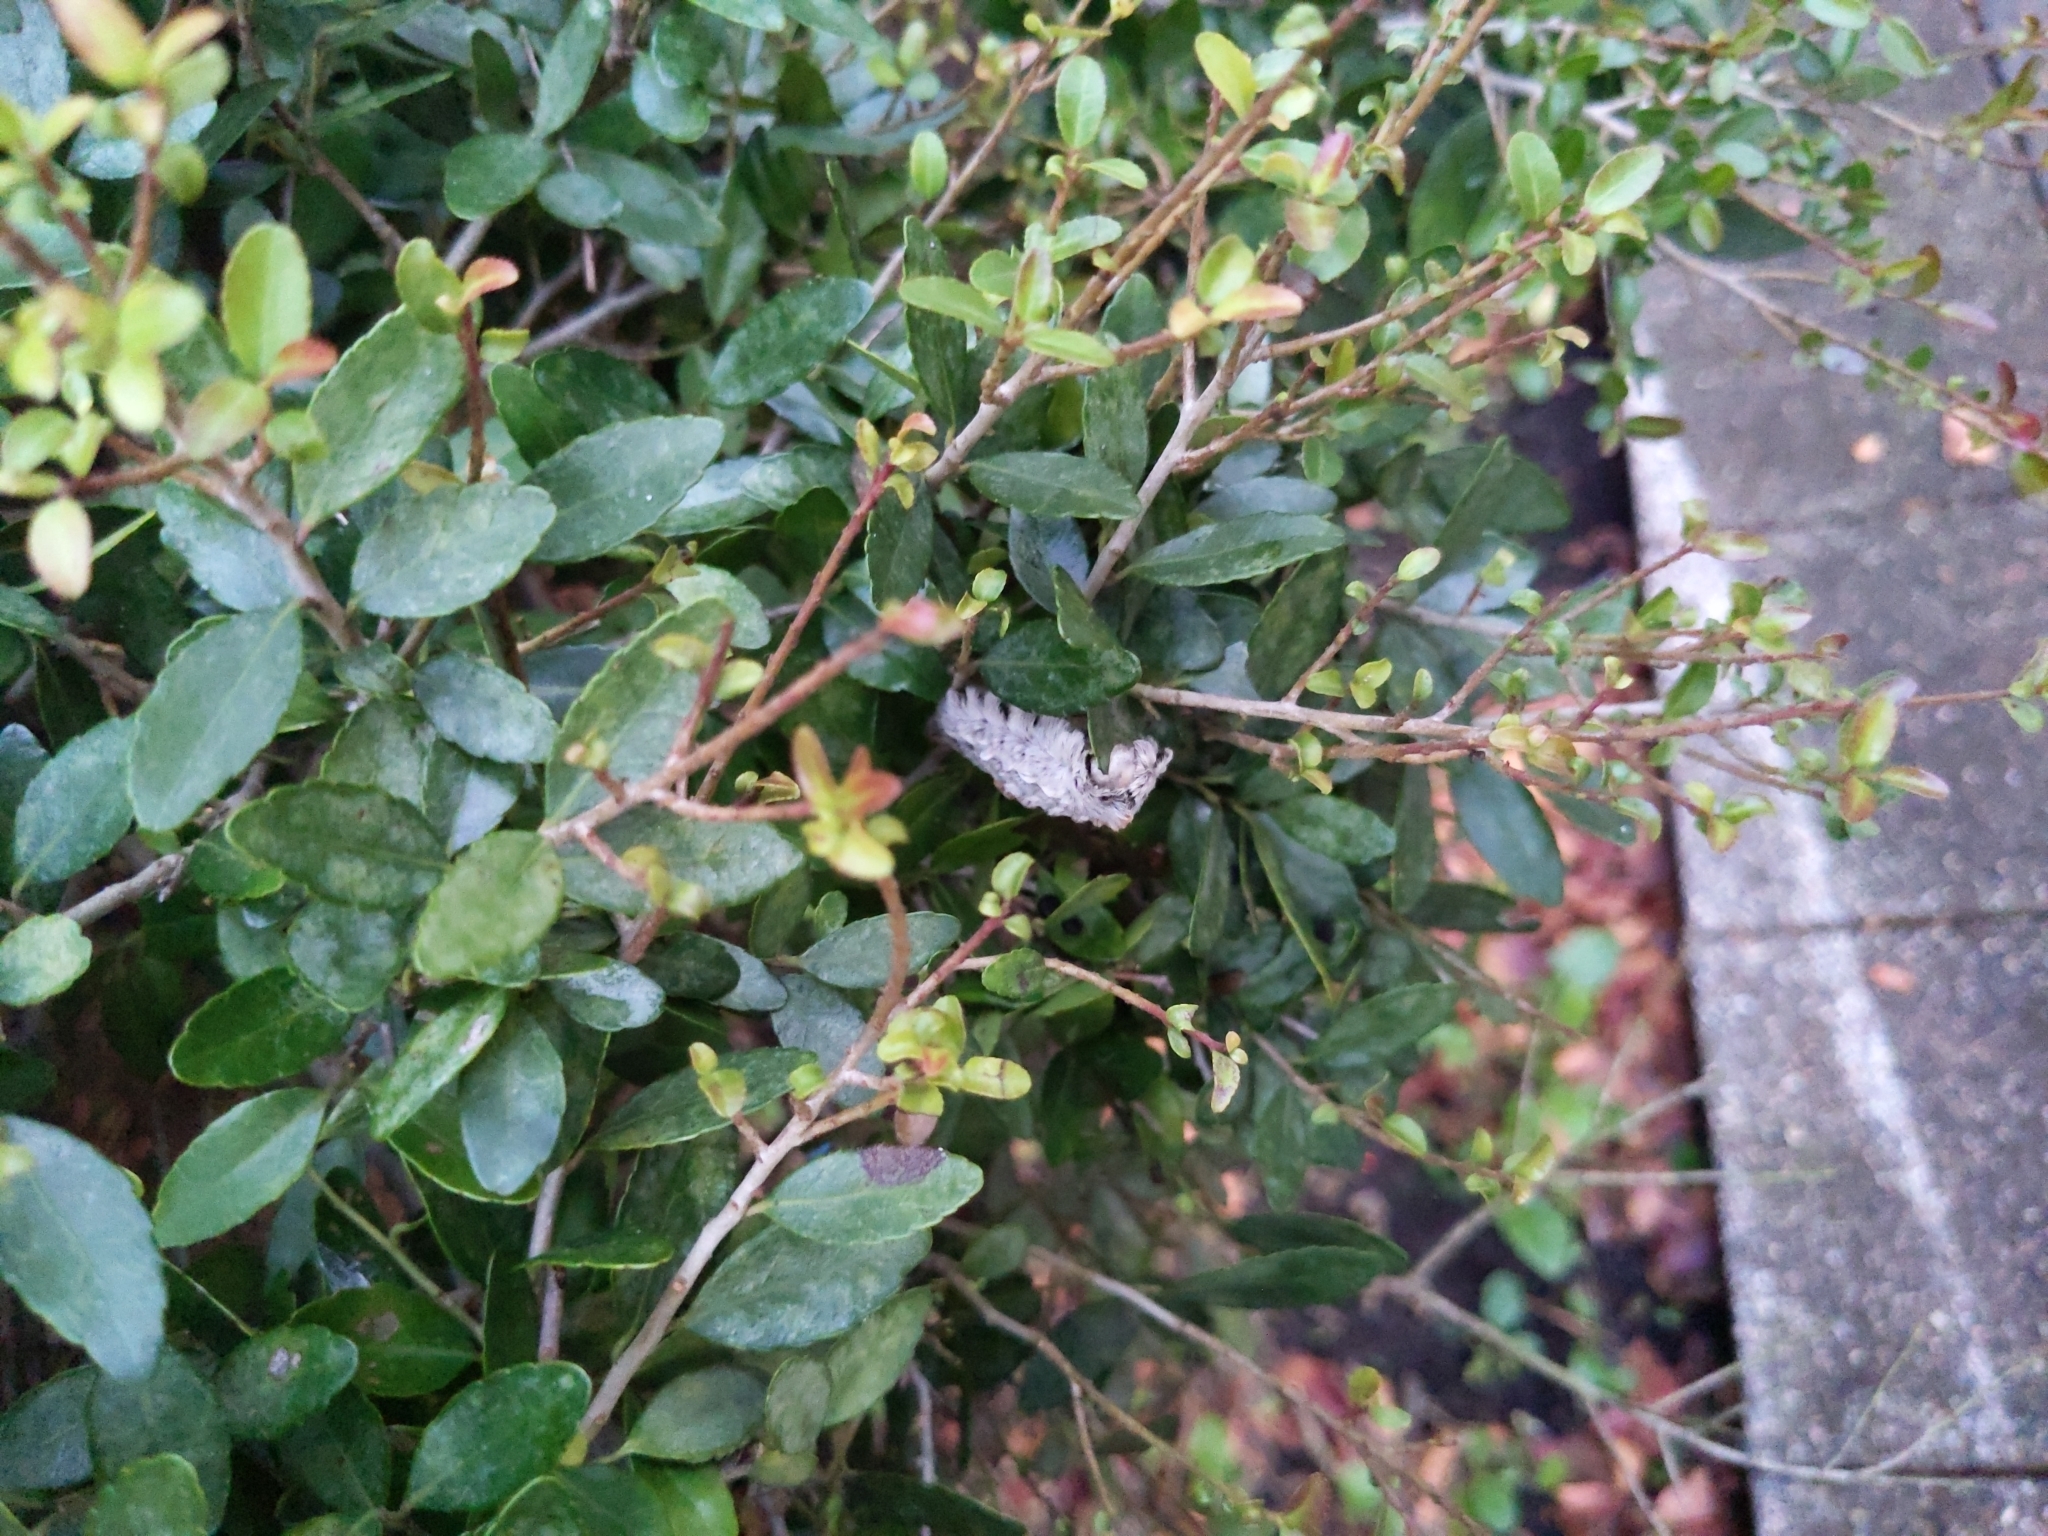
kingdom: Animalia
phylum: Arthropoda
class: Insecta
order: Lepidoptera
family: Megalopygidae
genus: Megalopyge
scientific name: Megalopyge opercularis
